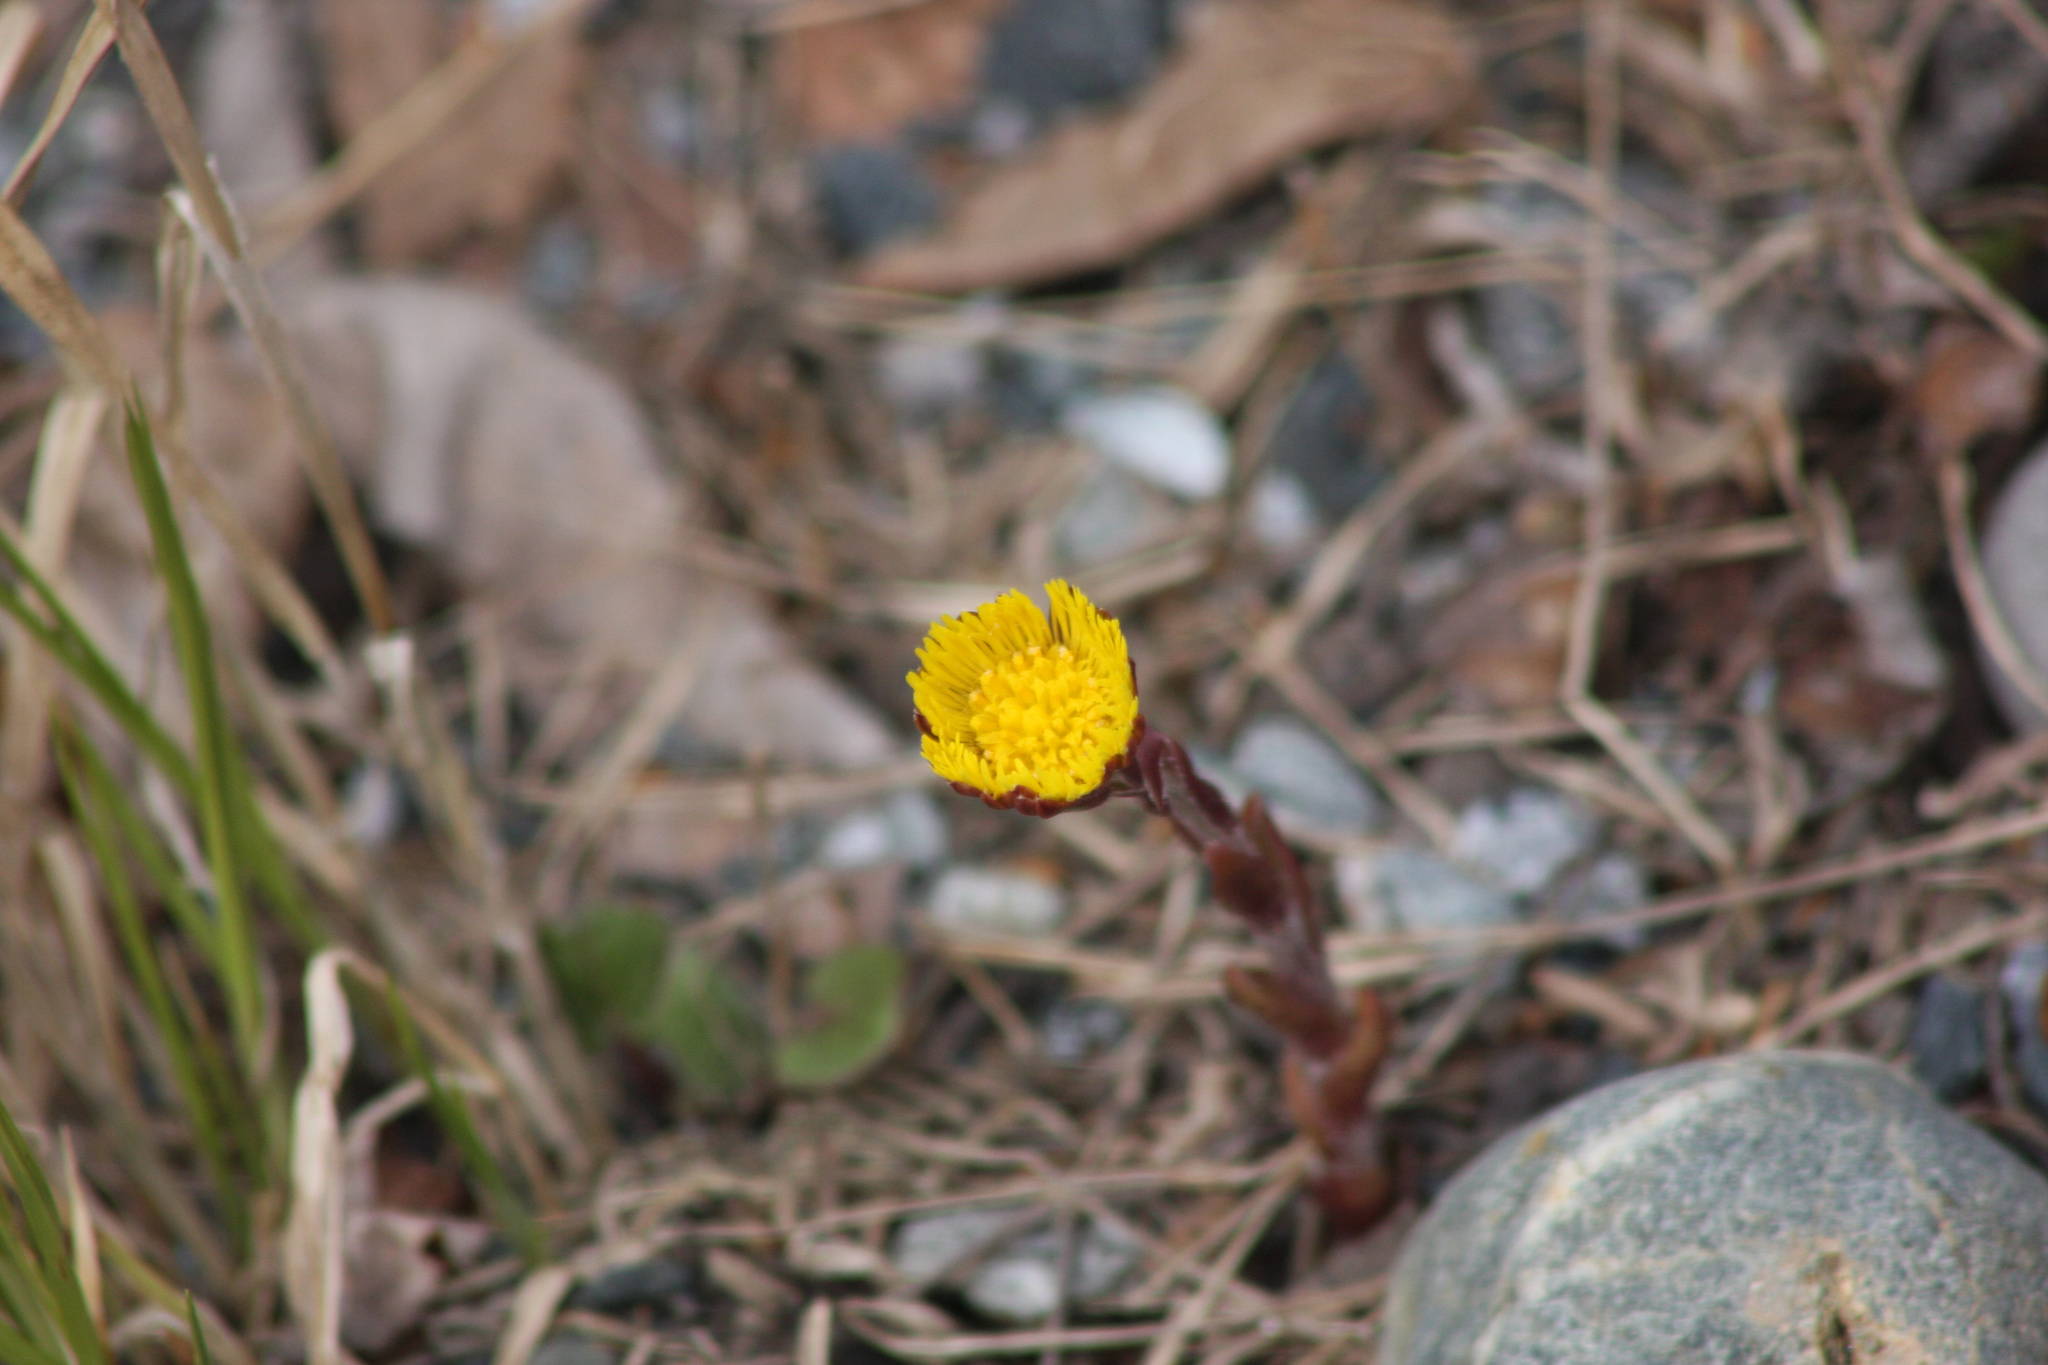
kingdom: Plantae
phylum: Tracheophyta
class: Magnoliopsida
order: Asterales
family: Asteraceae
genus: Tussilago
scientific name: Tussilago farfara
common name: Coltsfoot
